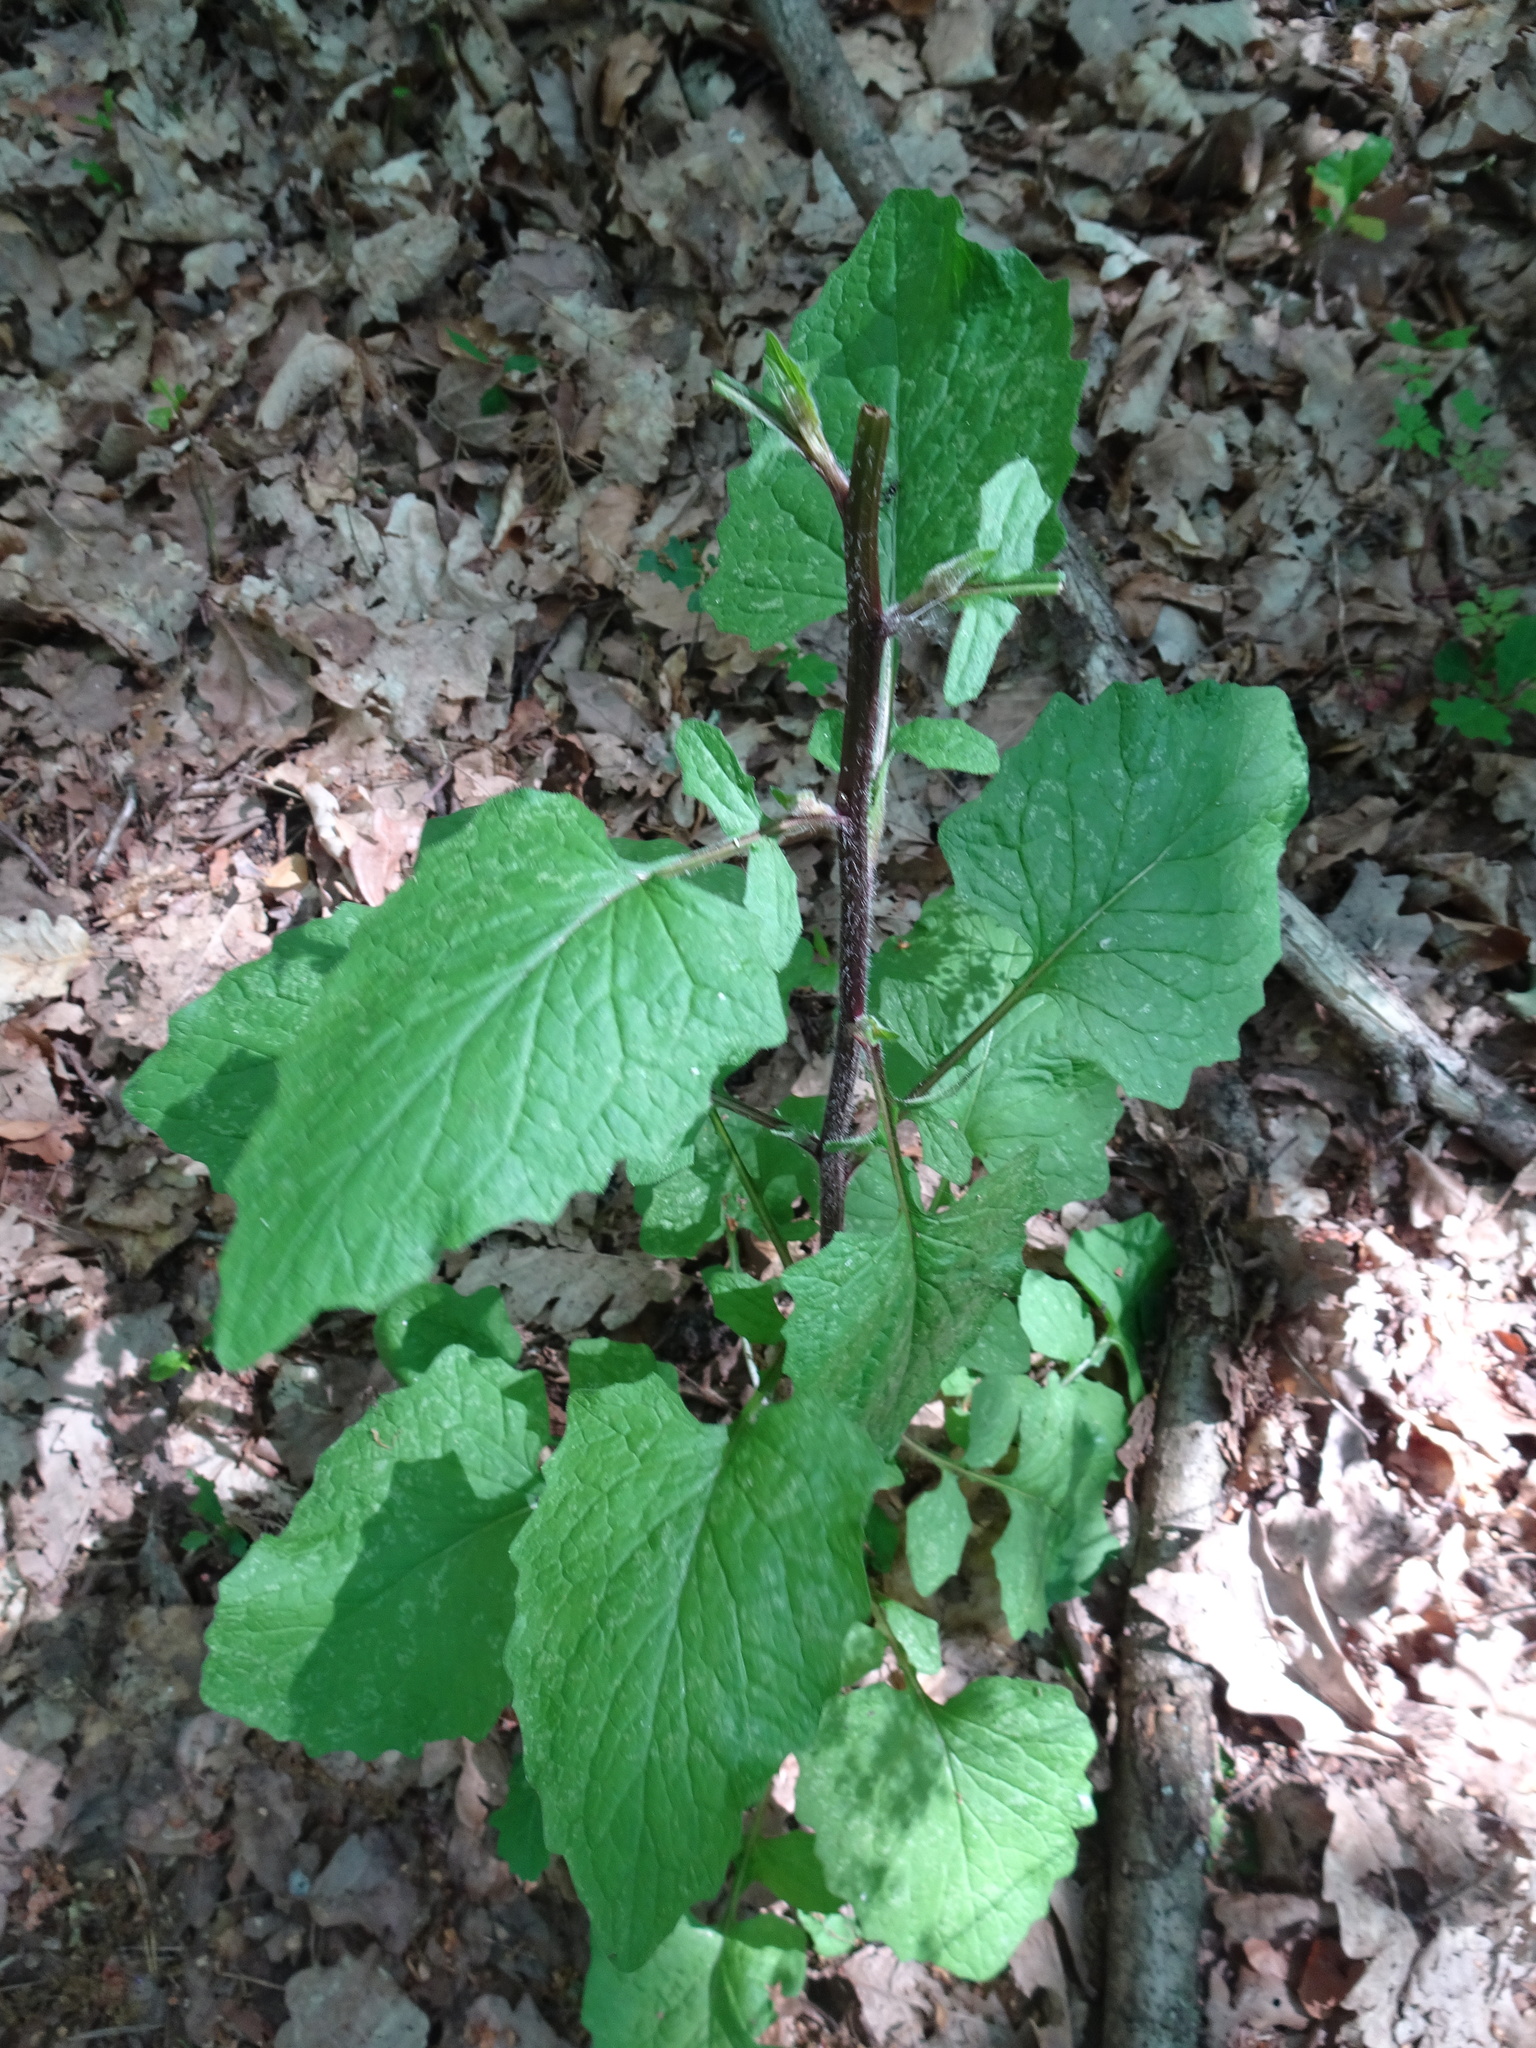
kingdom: Plantae
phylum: Tracheophyta
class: Magnoliopsida
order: Asterales
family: Asteraceae
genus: Lapsana
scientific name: Lapsana communis
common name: Nipplewort
